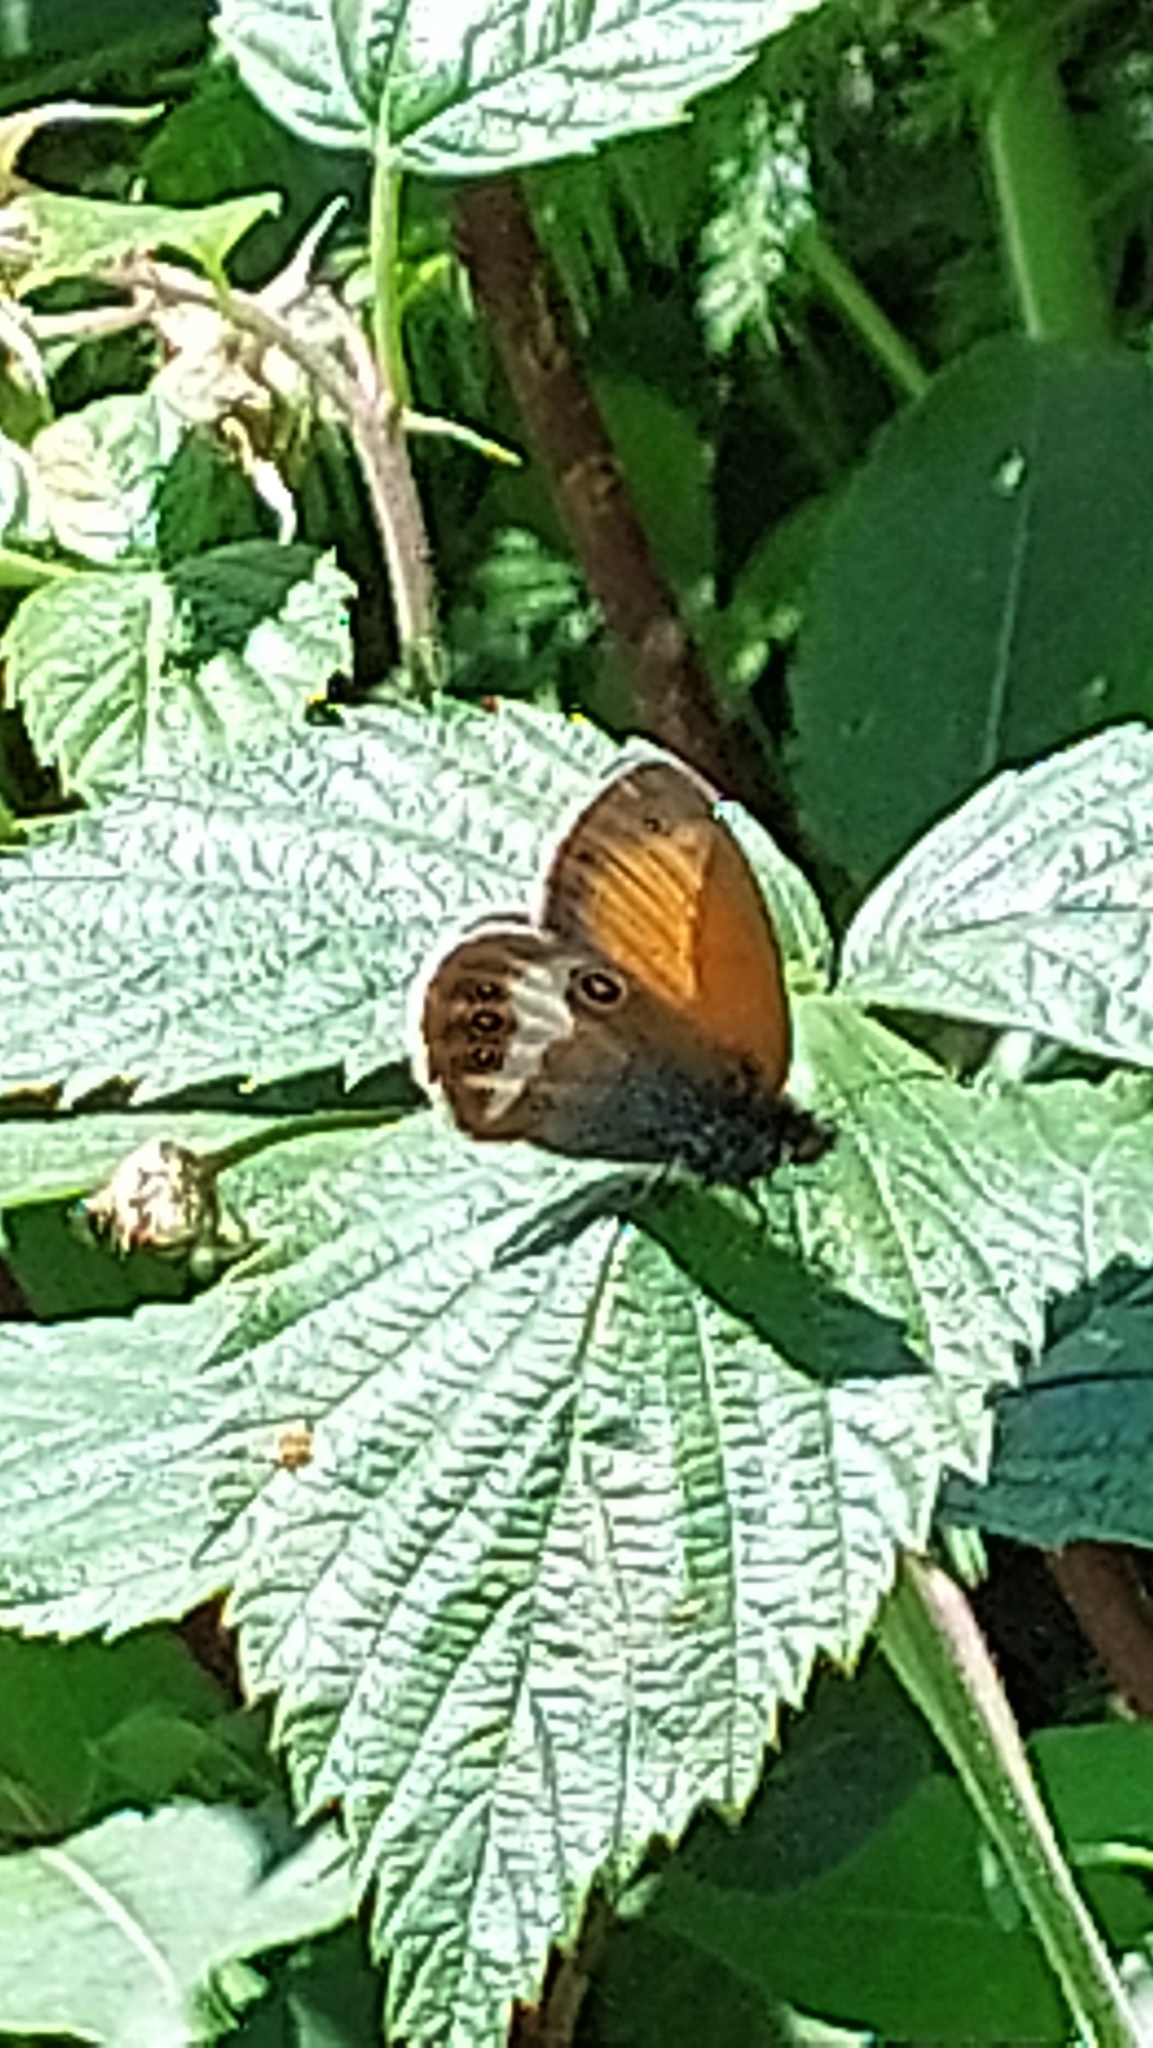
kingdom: Animalia
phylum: Arthropoda
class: Insecta
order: Lepidoptera
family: Nymphalidae
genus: Coenonympha
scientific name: Coenonympha arcania
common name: Pearly heath
